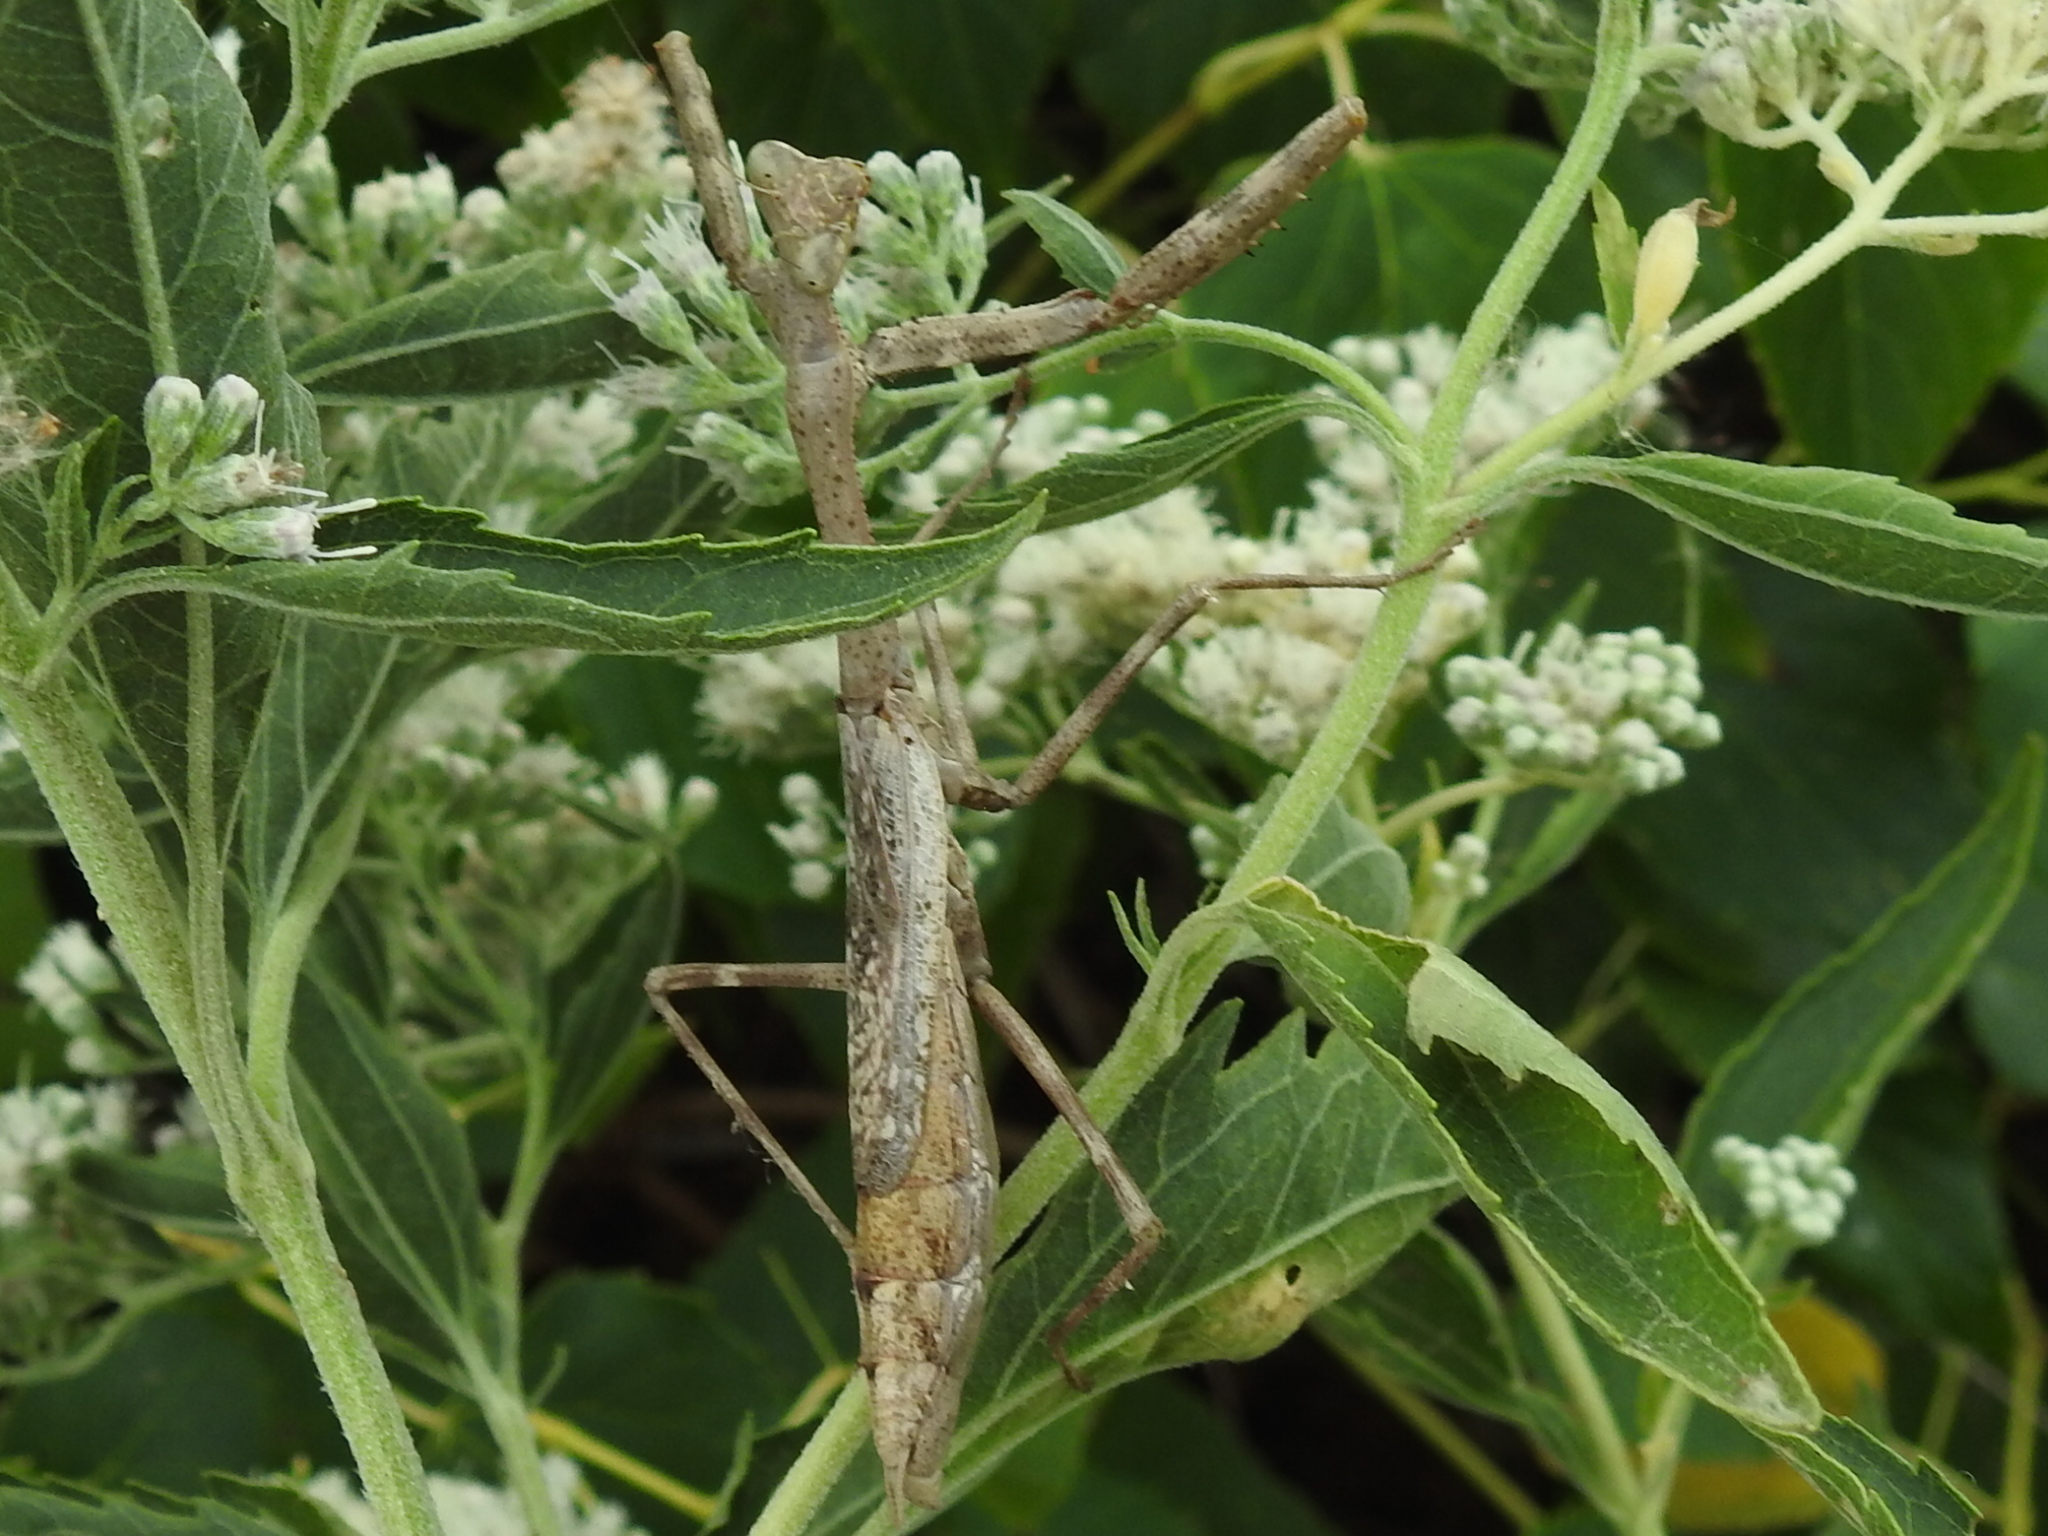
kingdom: Animalia
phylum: Arthropoda
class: Insecta
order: Mantodea
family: Mantidae
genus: Stagmomantis
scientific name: Stagmomantis carolina
